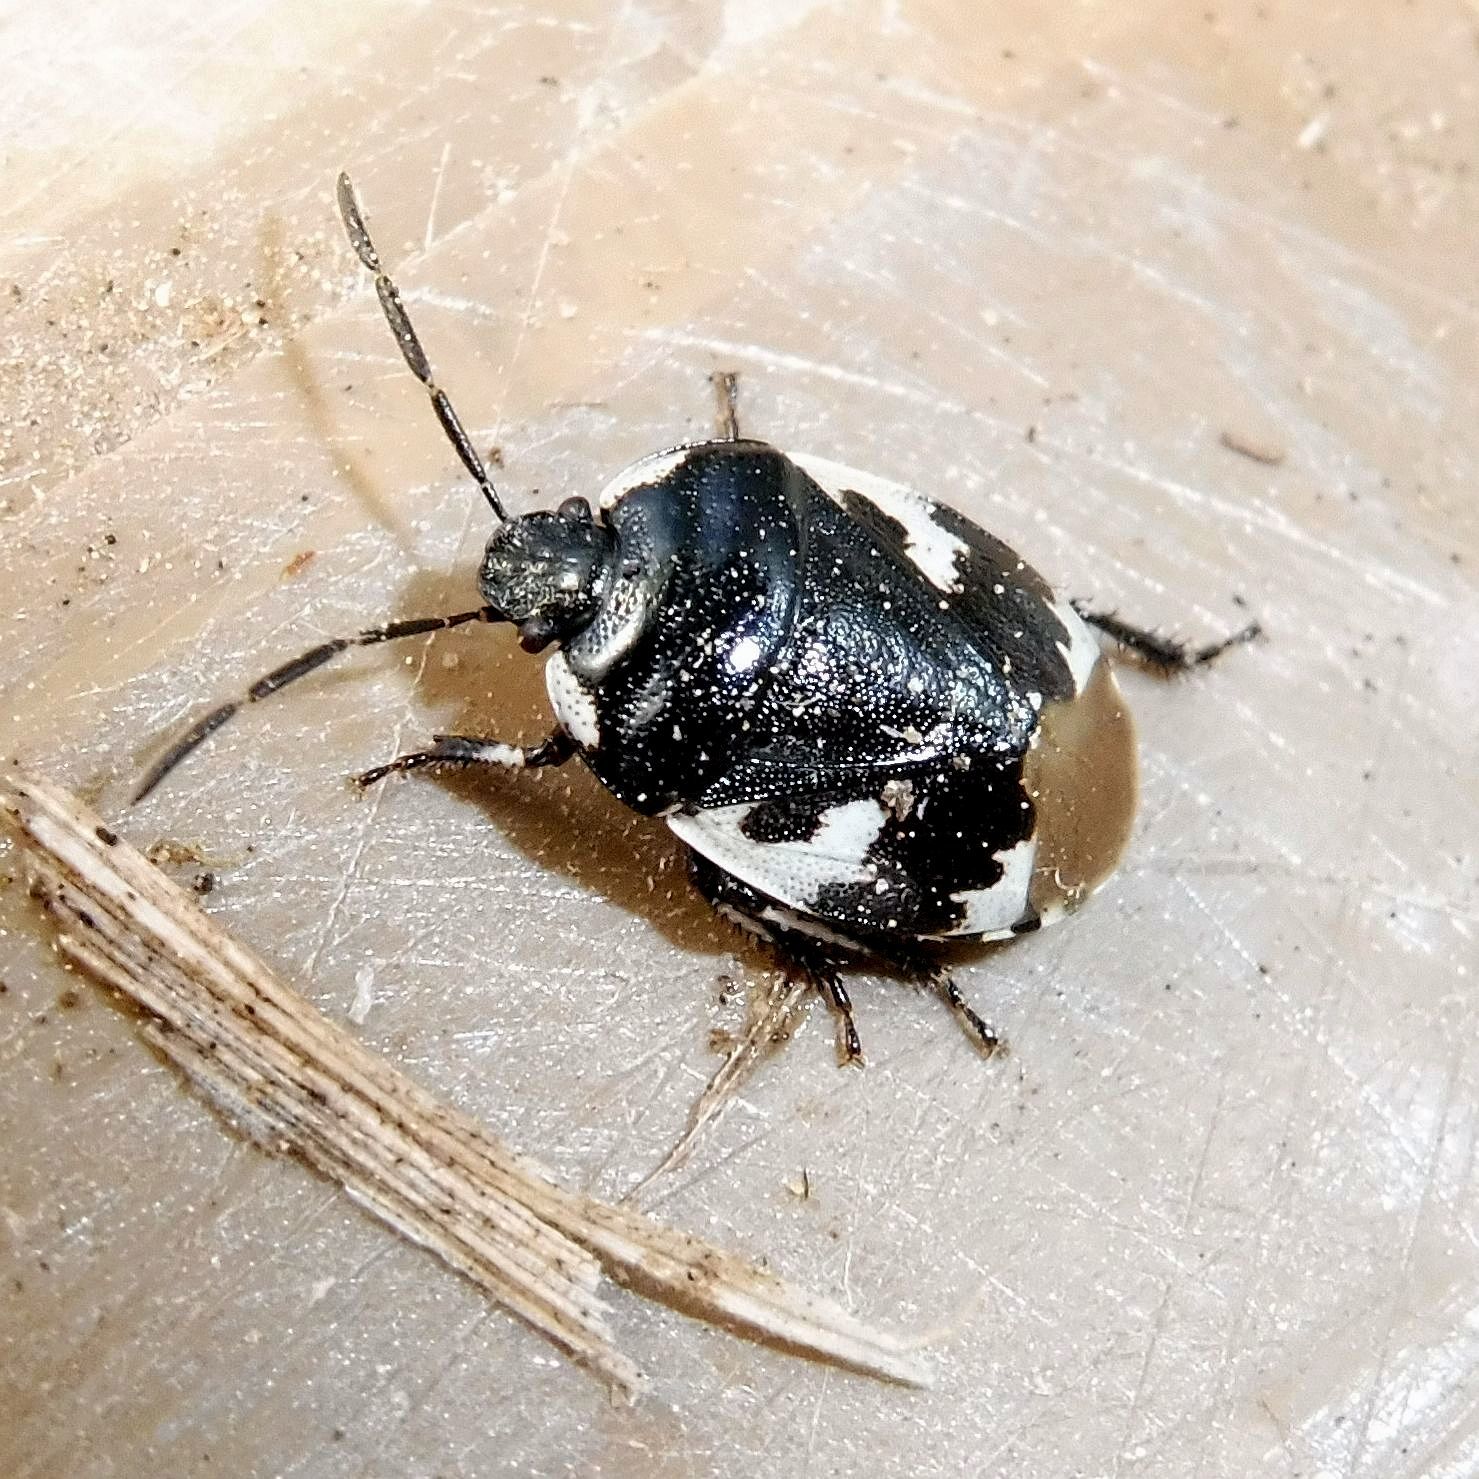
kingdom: Animalia
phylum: Arthropoda
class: Insecta
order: Hemiptera
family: Cydnidae
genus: Tritomegas
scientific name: Tritomegas bicolor
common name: Pied shieldbug
